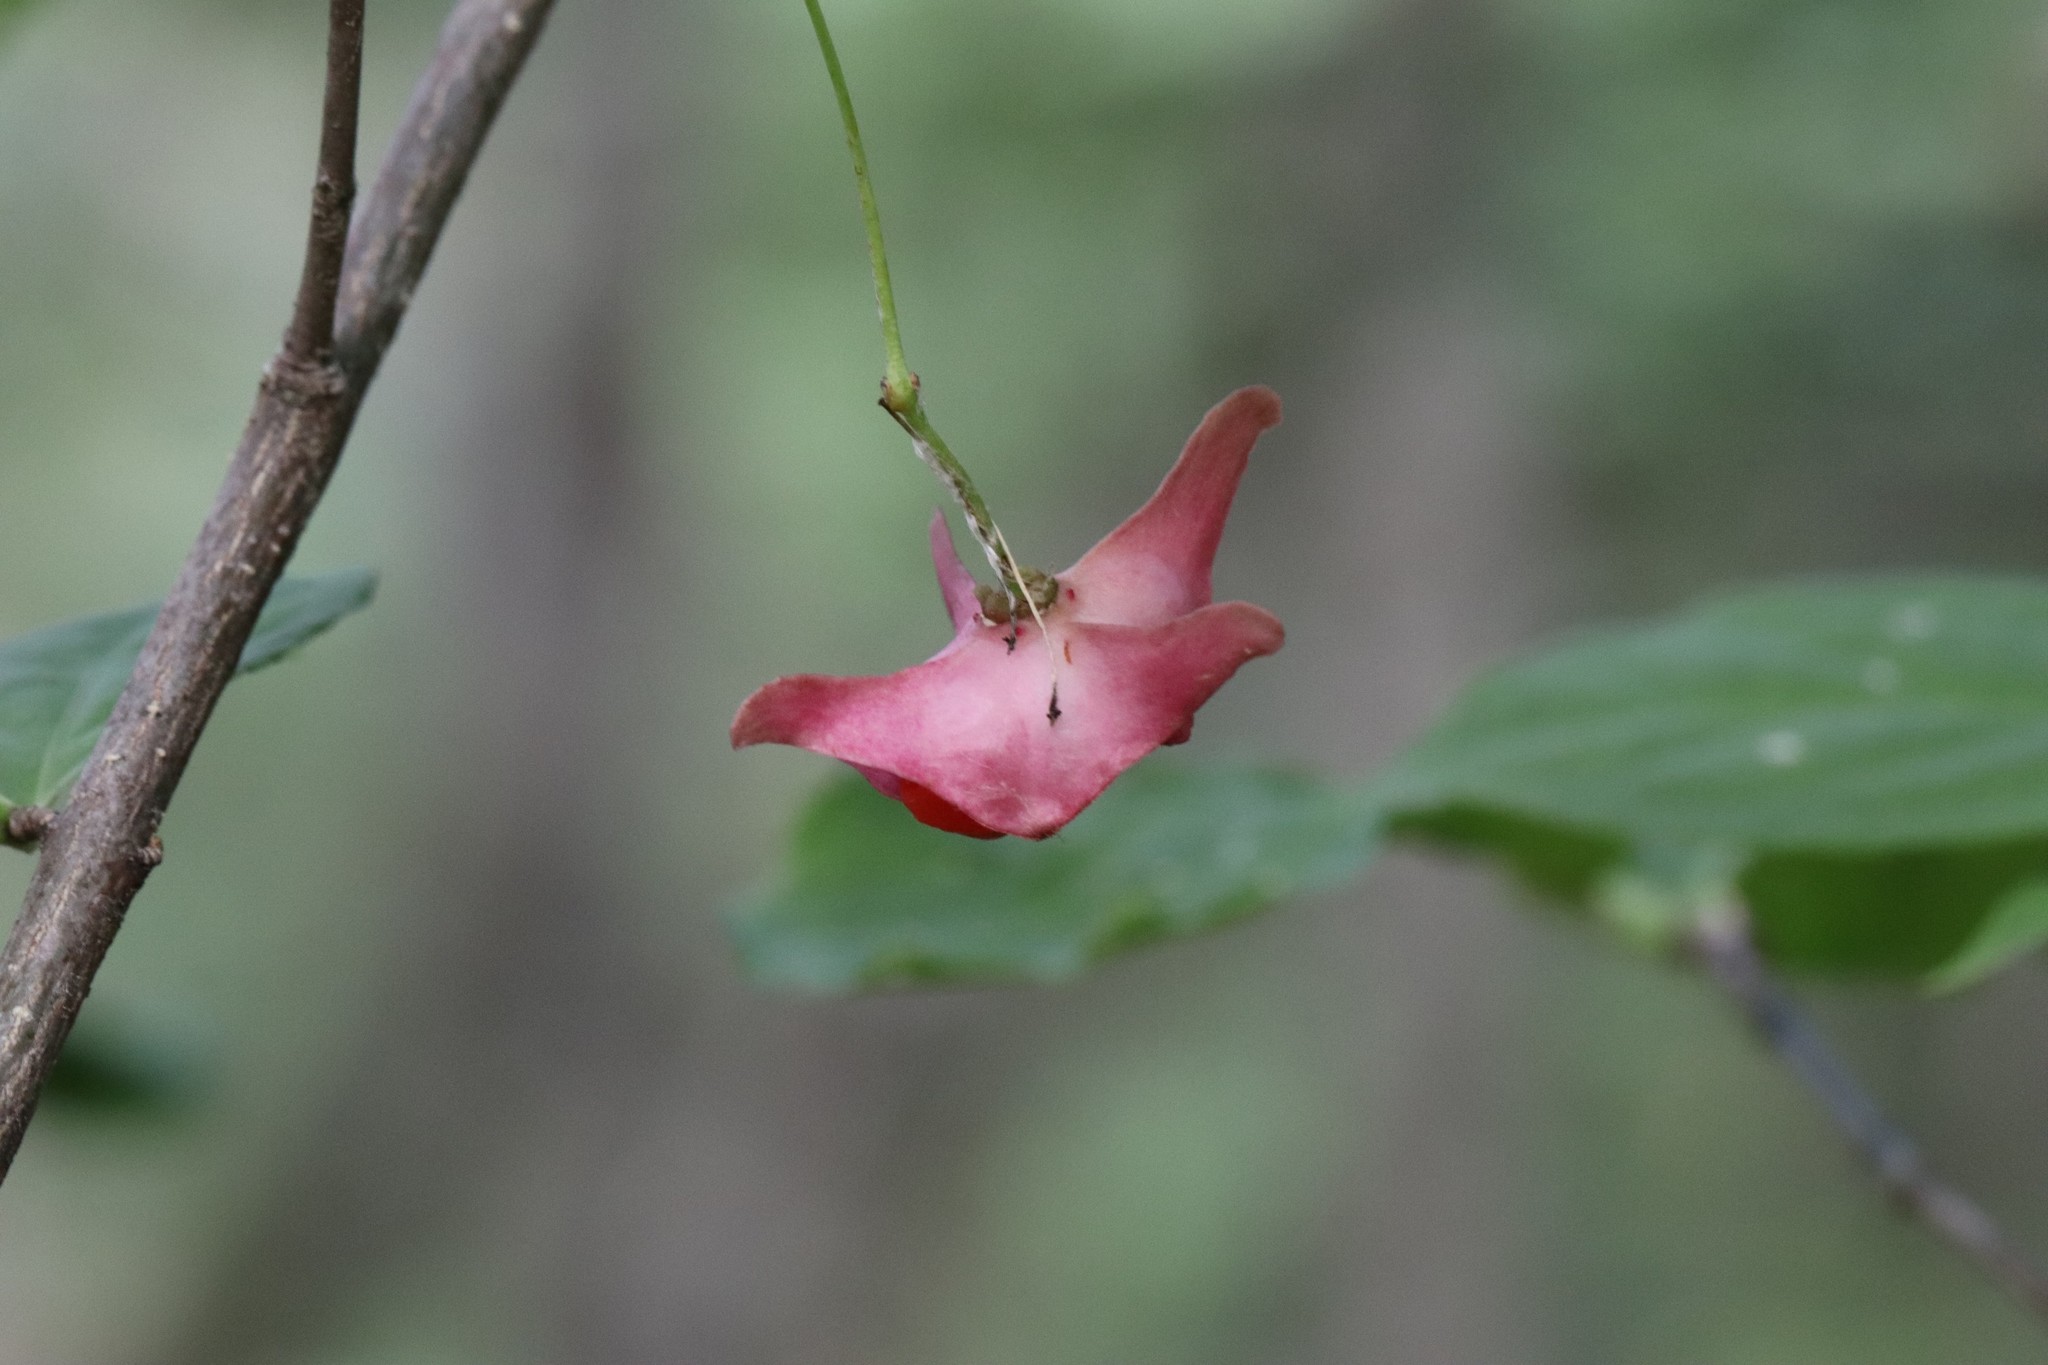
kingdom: Plantae
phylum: Tracheophyta
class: Magnoliopsida
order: Celastrales
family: Celastraceae
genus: Euonymus
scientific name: Euonymus macropterus
